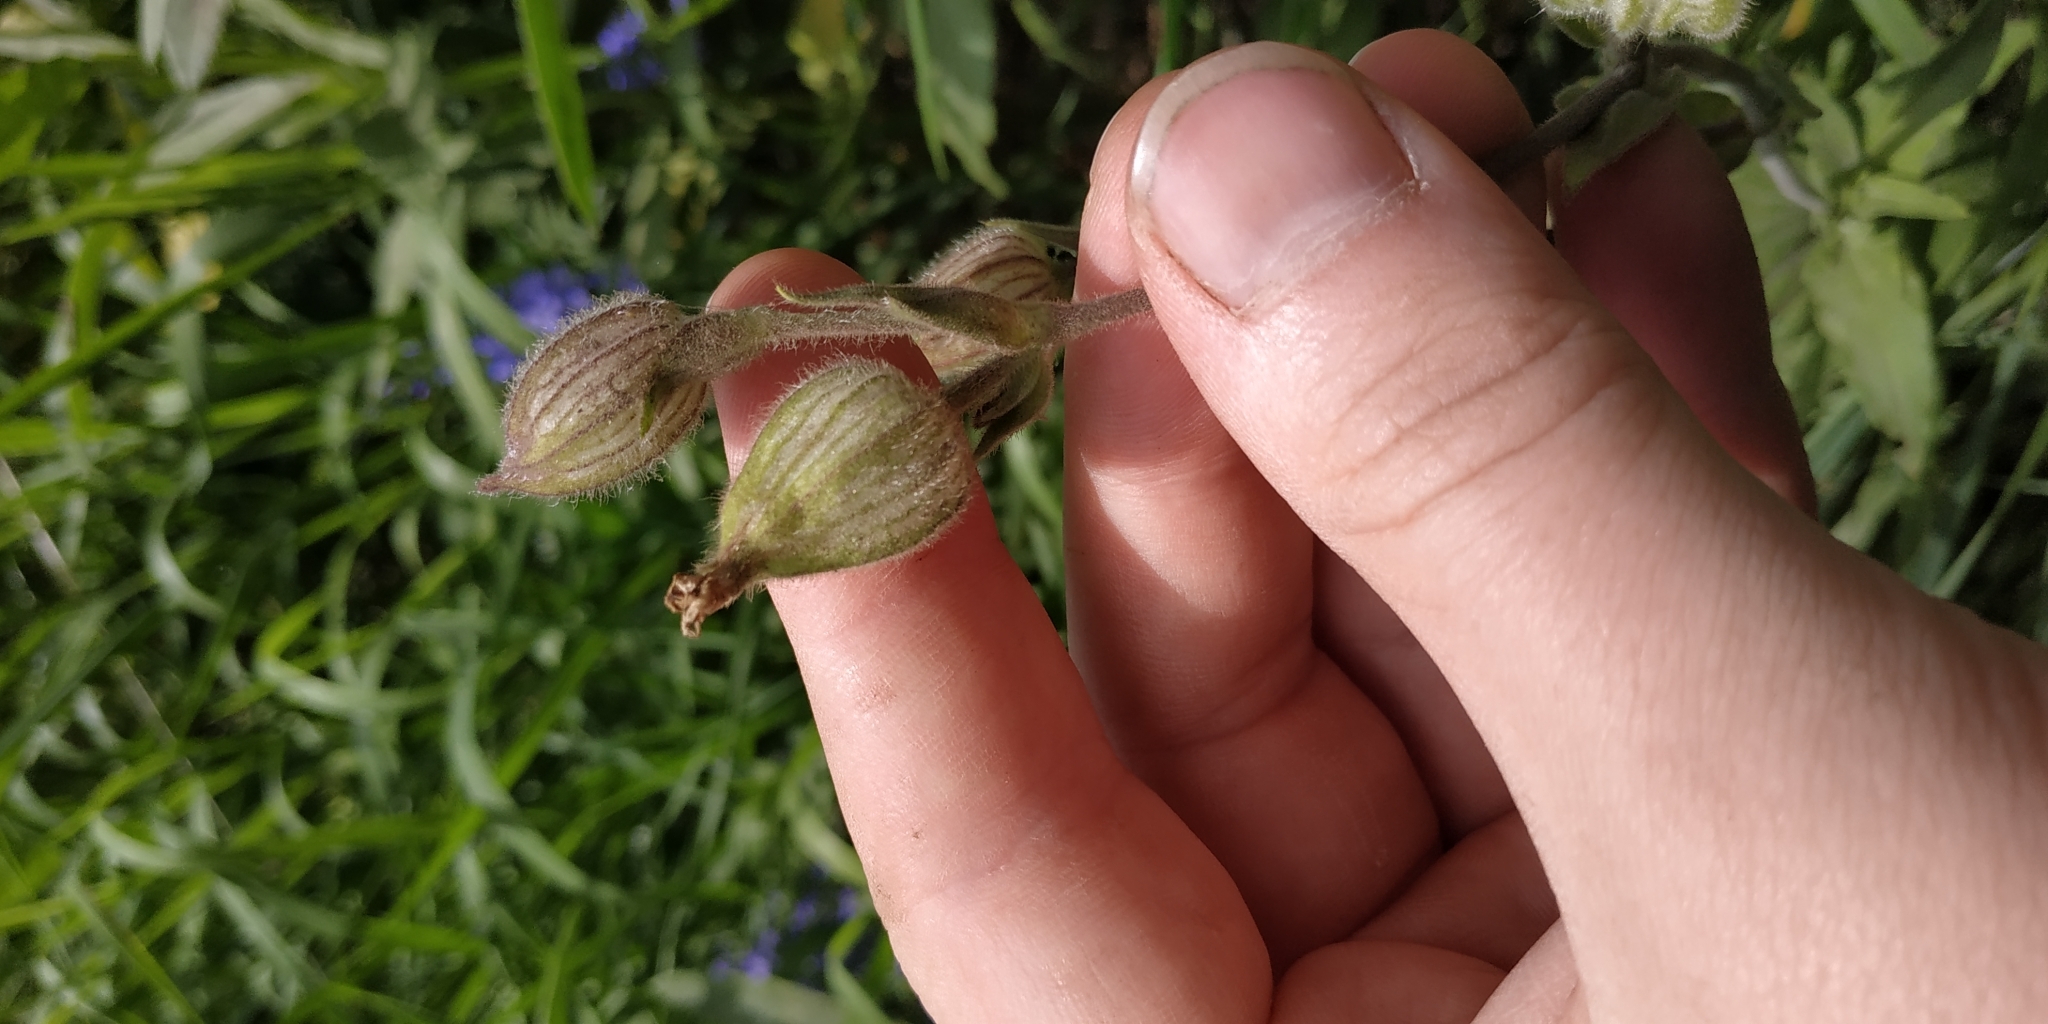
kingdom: Plantae
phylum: Tracheophyta
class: Magnoliopsida
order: Caryophyllales
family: Caryophyllaceae
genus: Silene
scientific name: Silene latifolia
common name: White campion
